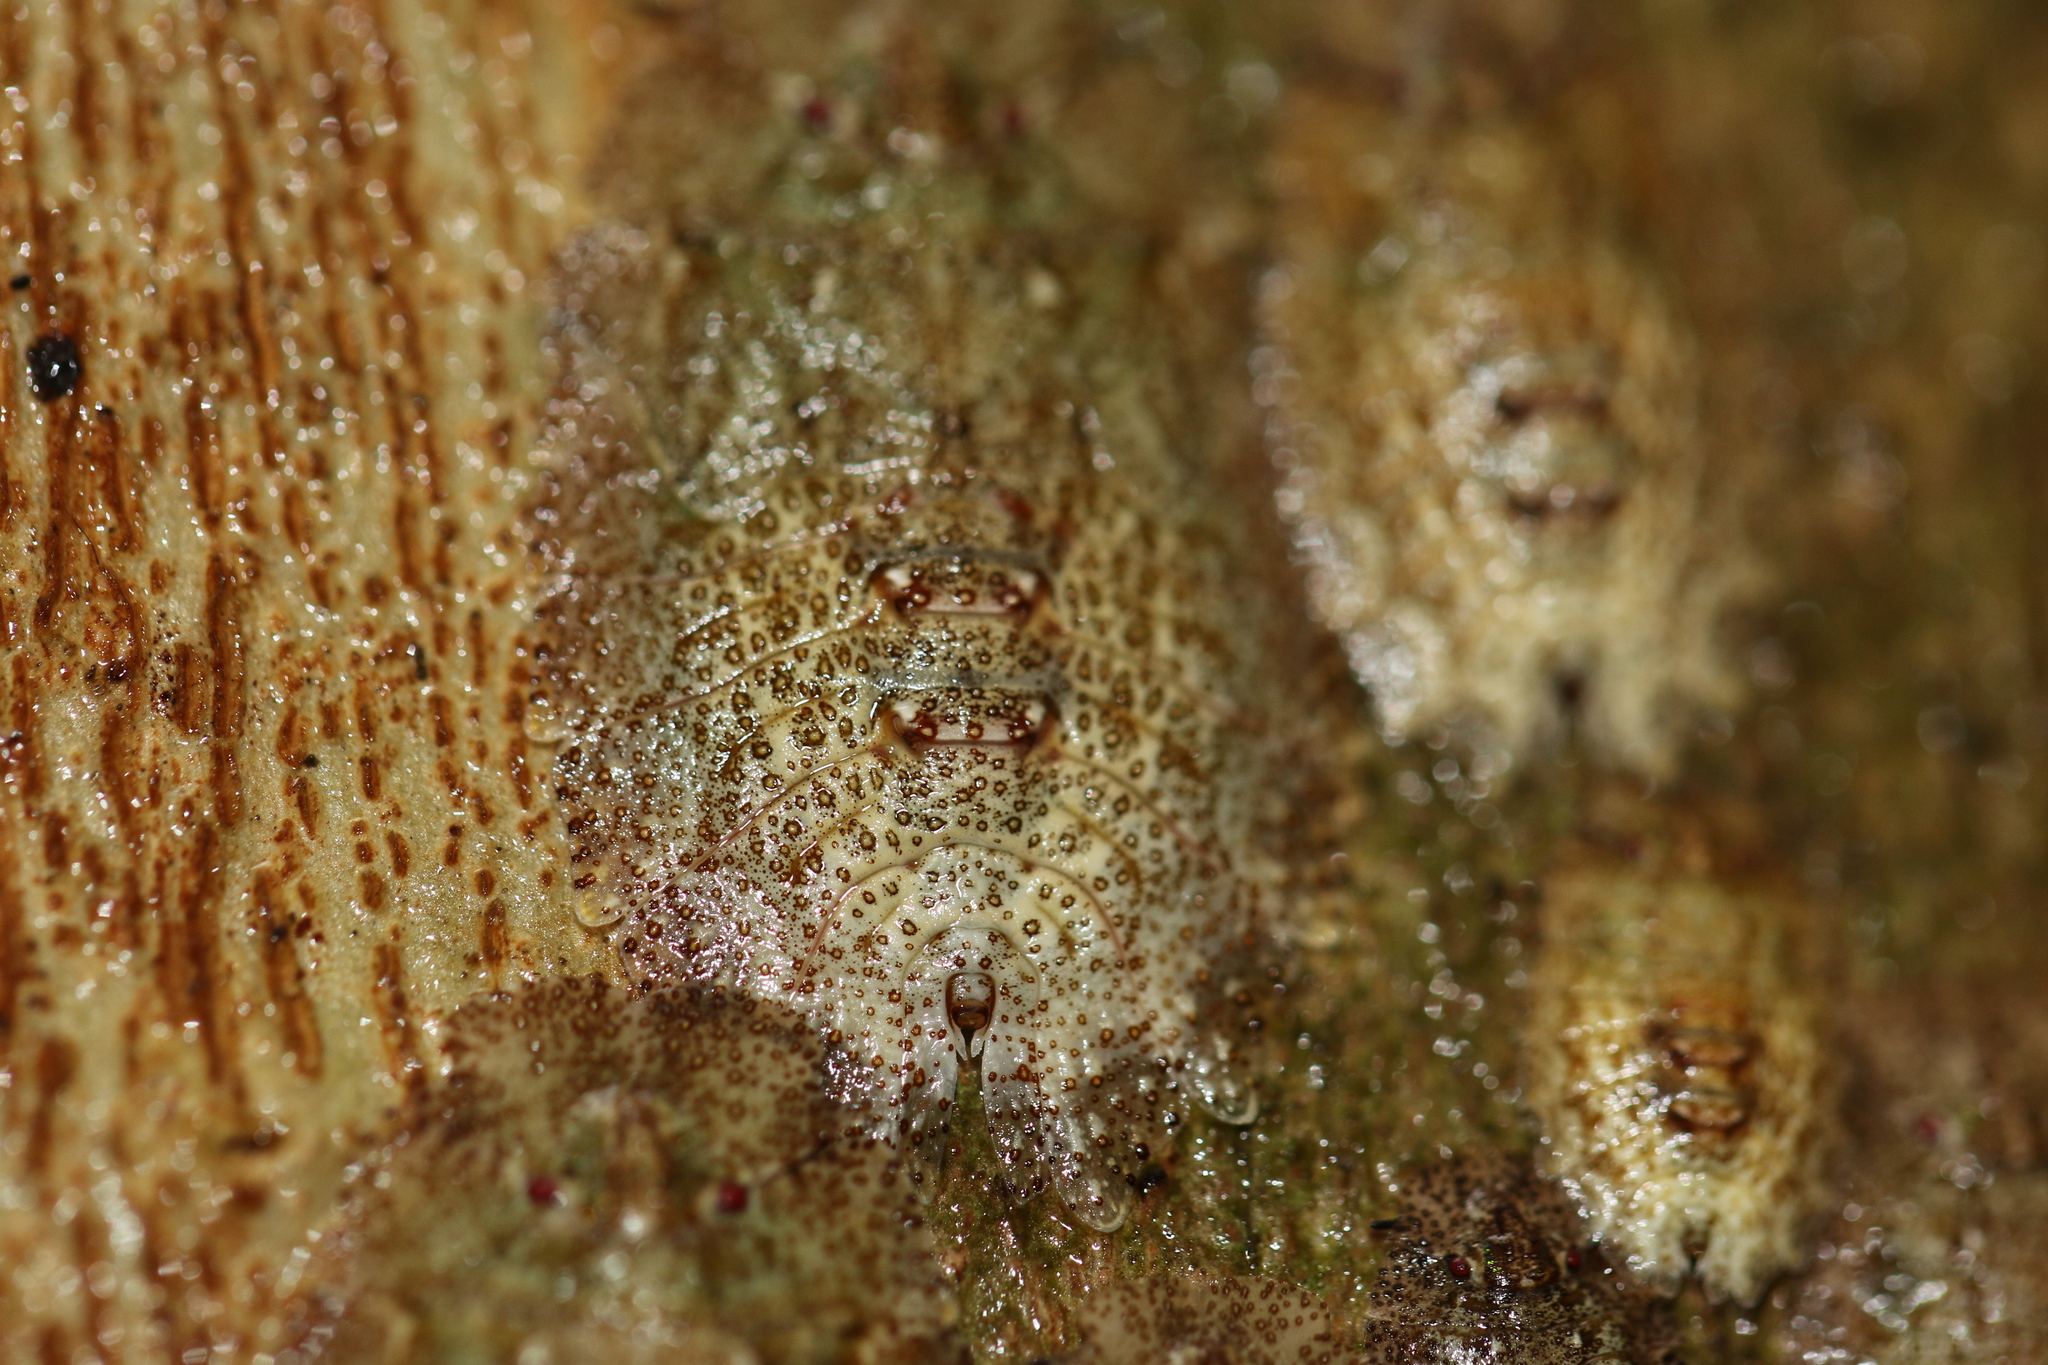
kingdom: Animalia
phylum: Arthropoda
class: Insecta
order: Hemiptera
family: Phleides
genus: Phloea
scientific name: Phloea
